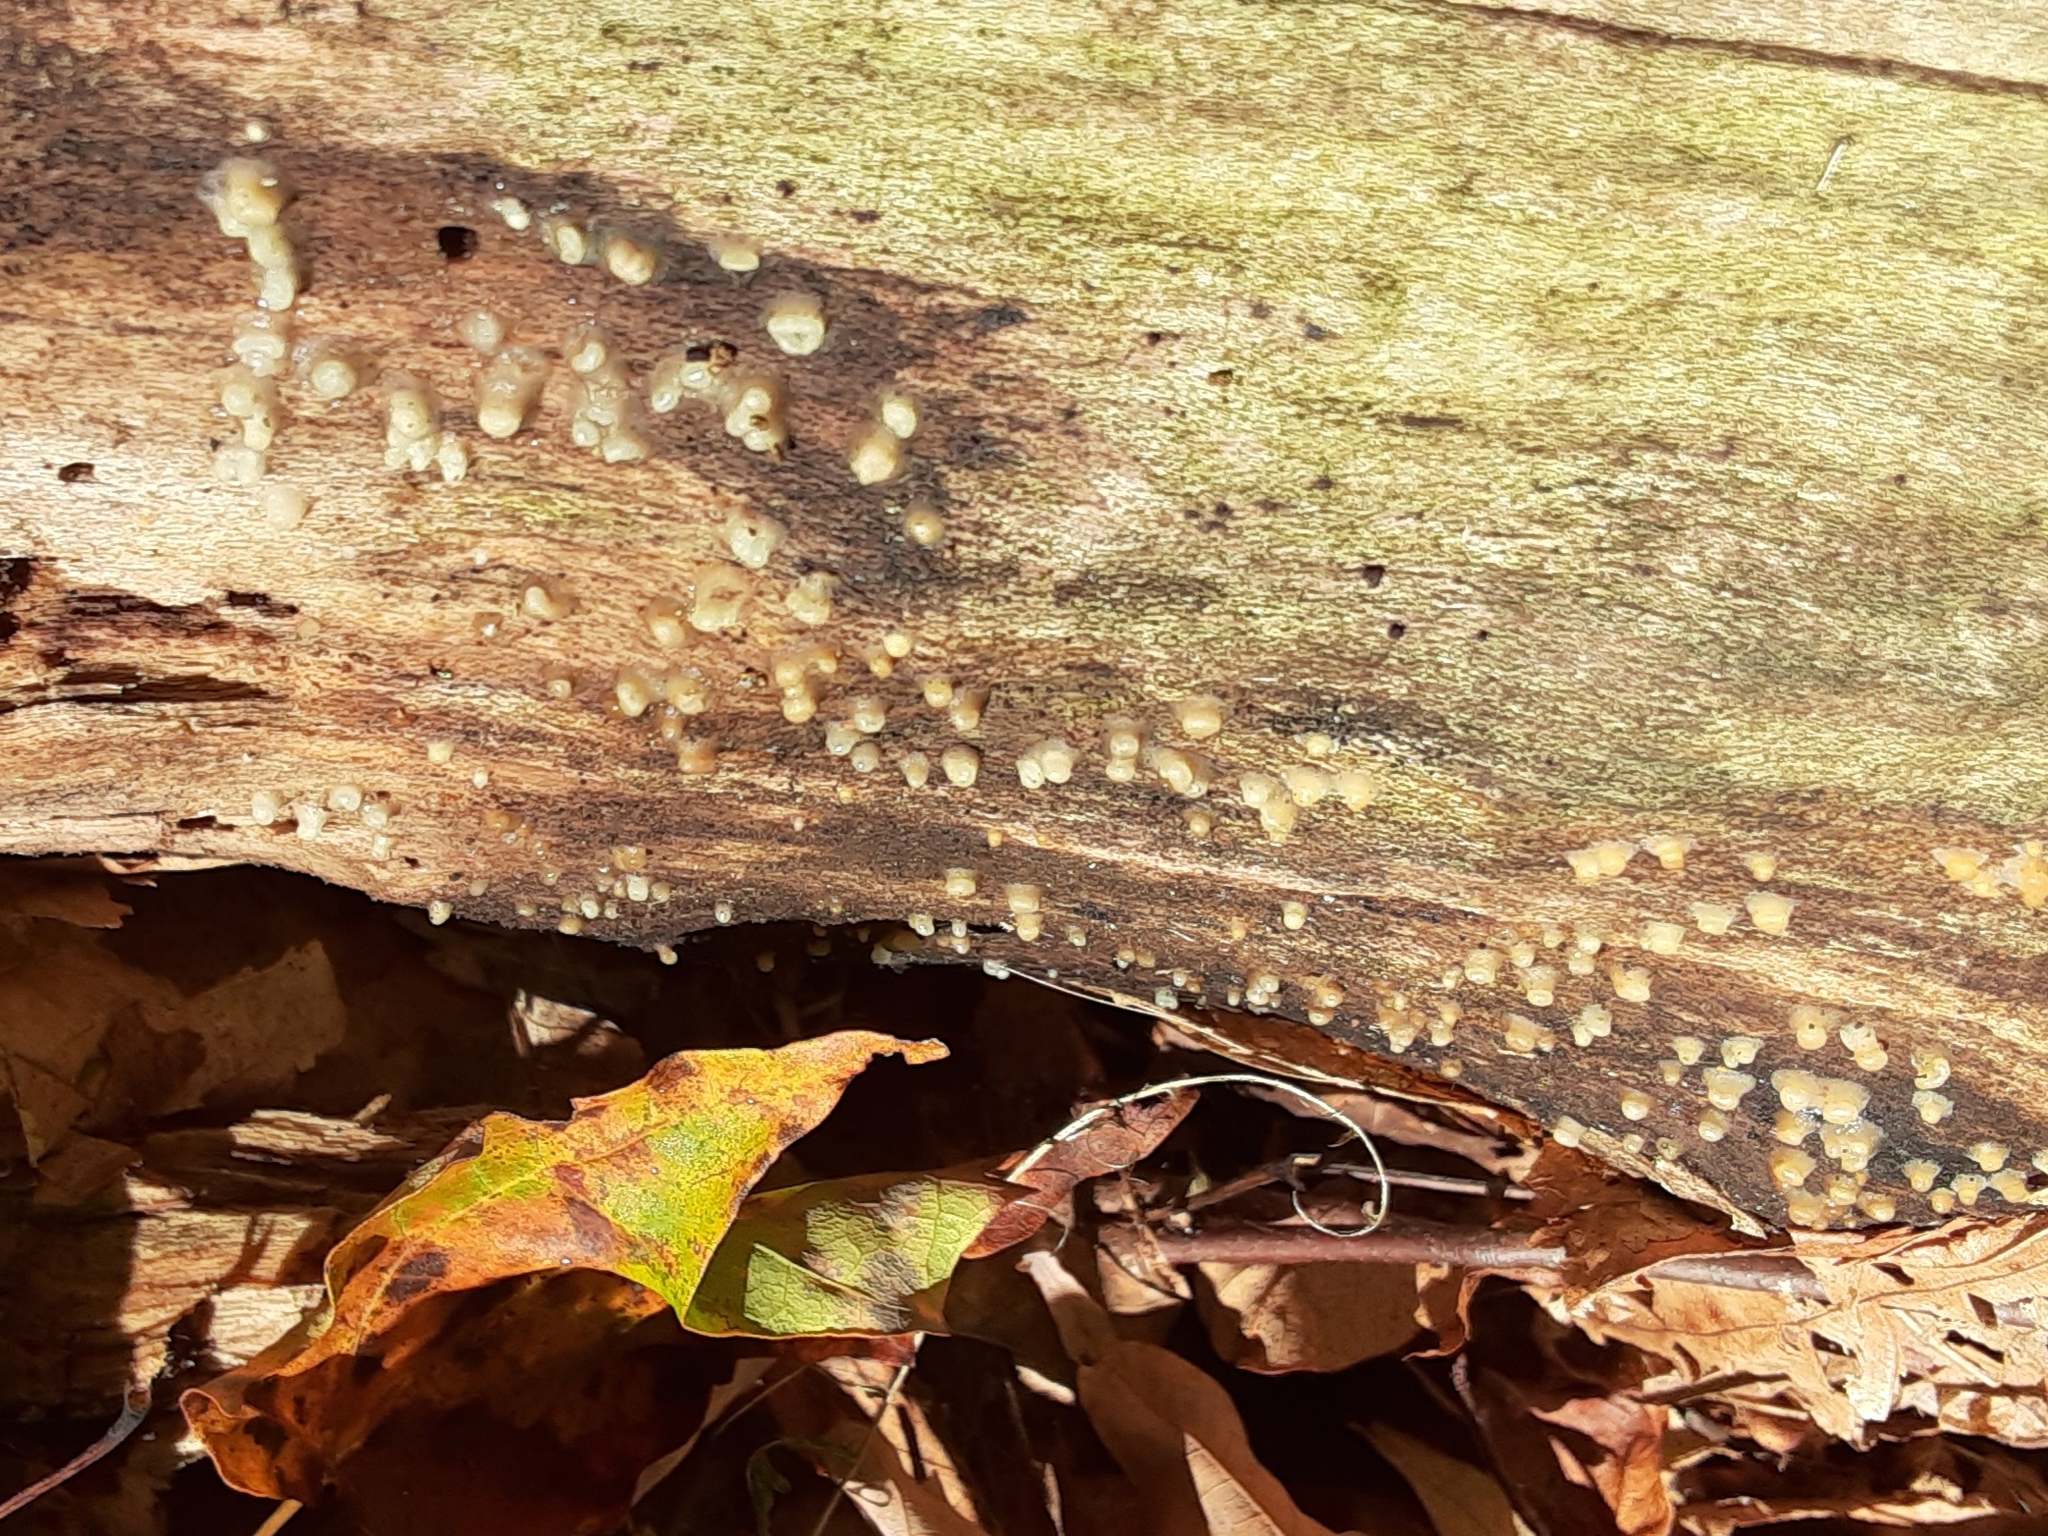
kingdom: Fungi
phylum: Basidiomycota
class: Atractiellomycetes
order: Atractiellales
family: Phleogenaceae
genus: Helicogloea
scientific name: Helicogloea compressa
